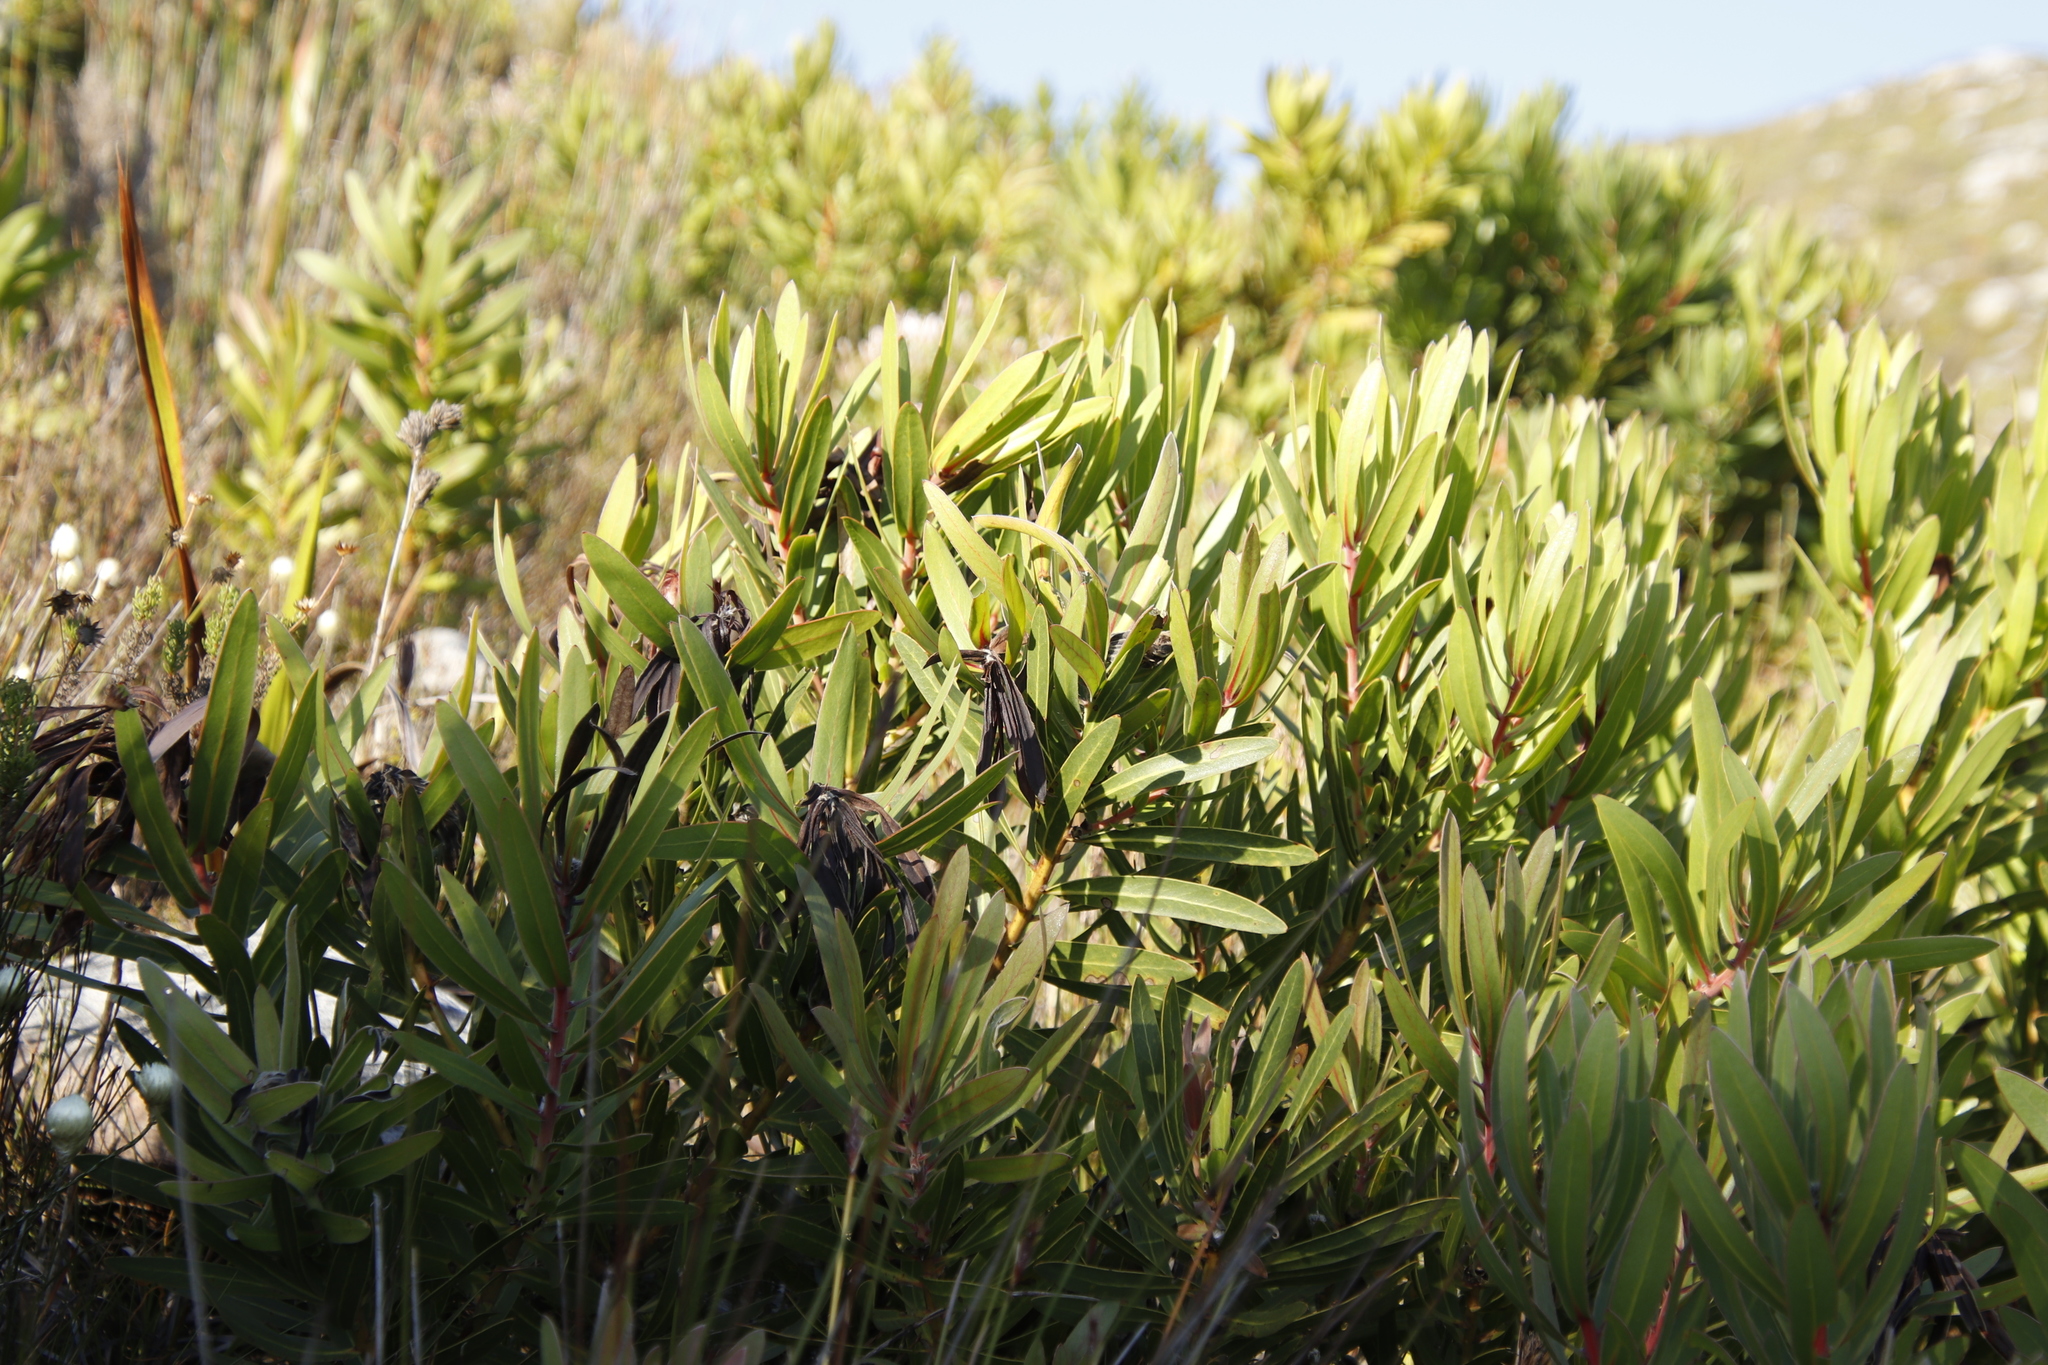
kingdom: Plantae
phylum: Tracheophyta
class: Magnoliopsida
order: Proteales
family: Proteaceae
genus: Protea
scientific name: Protea lepidocarpodendron
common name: Black-bearded protea
